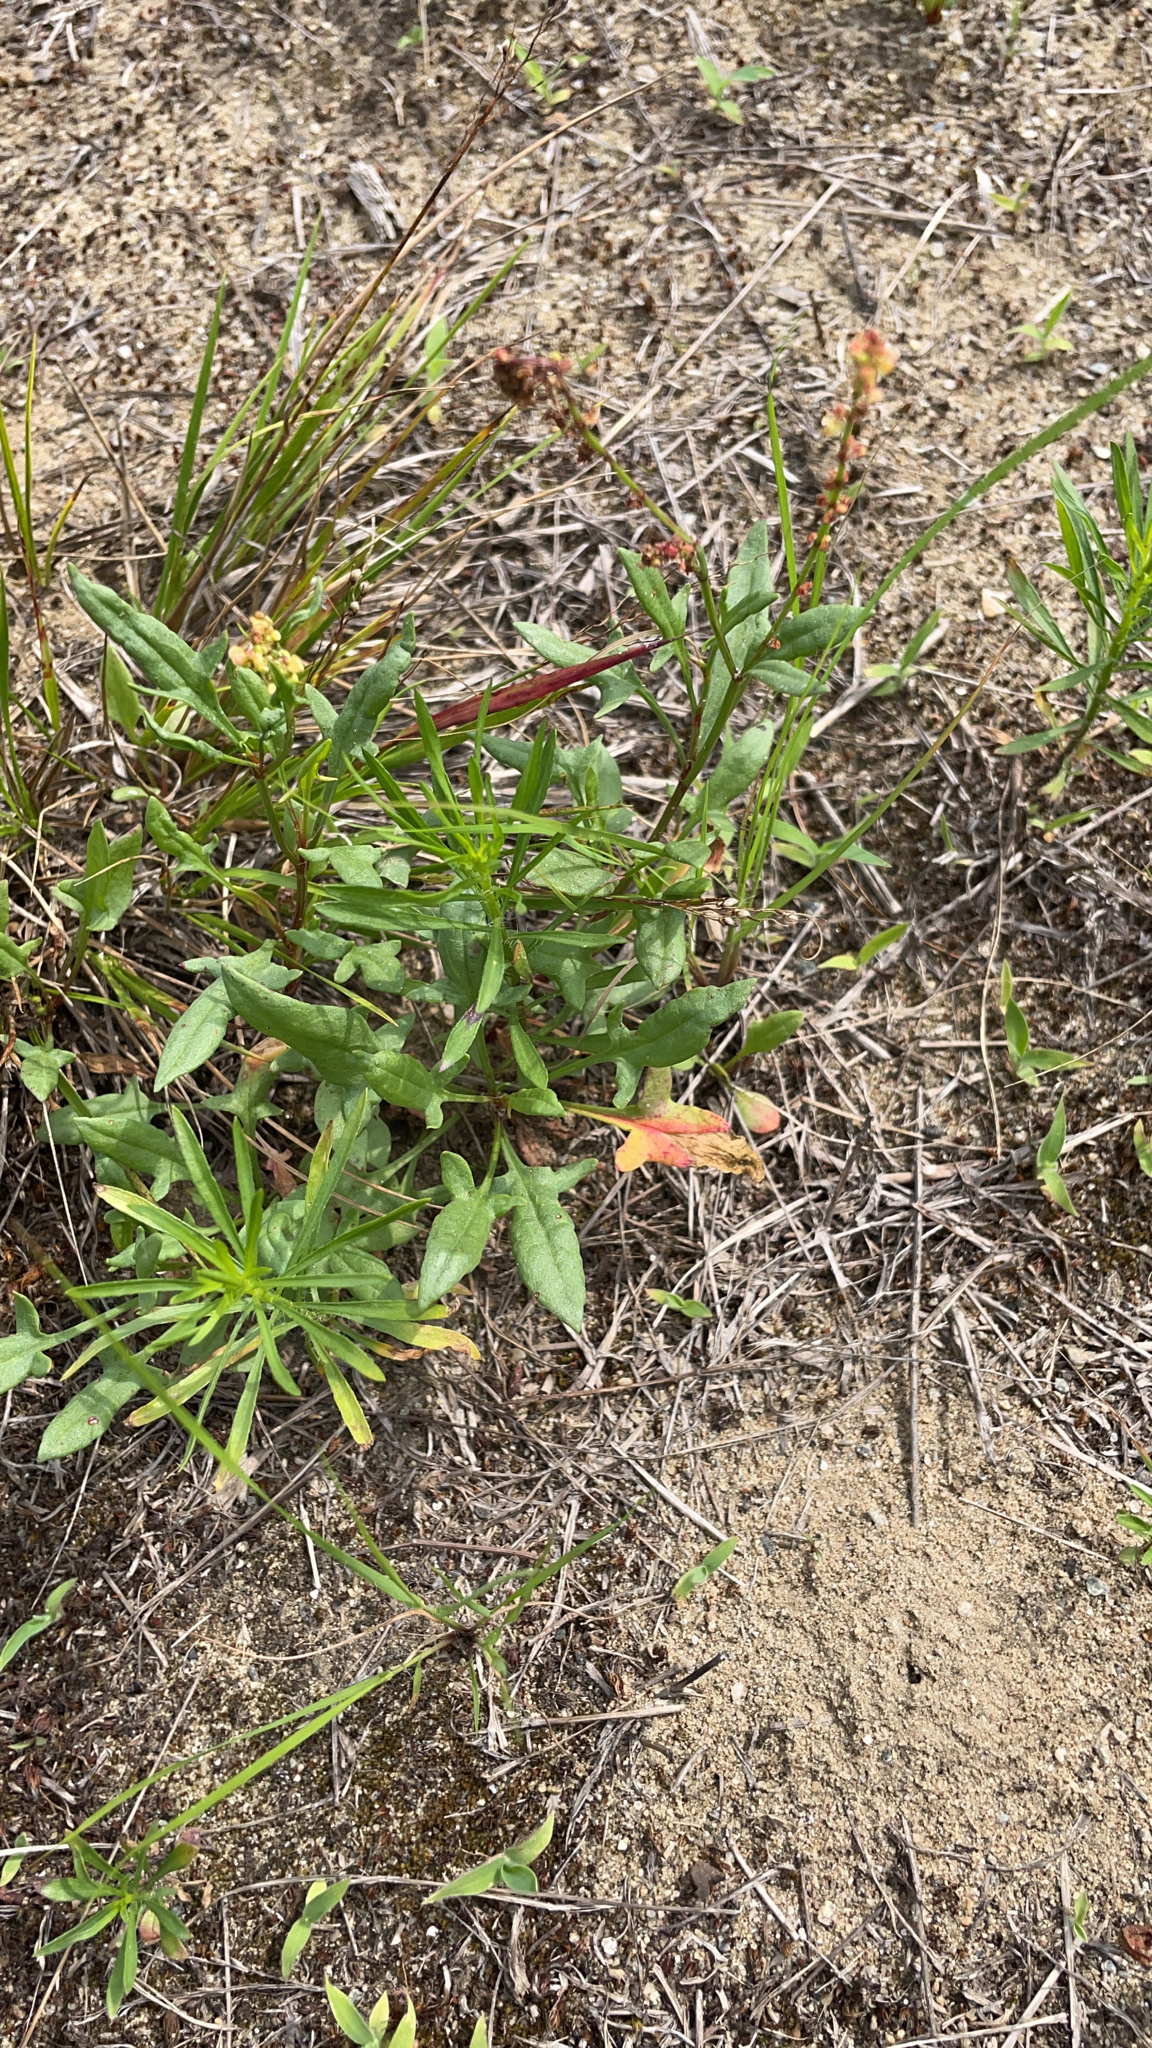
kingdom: Plantae
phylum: Tracheophyta
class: Magnoliopsida
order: Caryophyllales
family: Polygonaceae
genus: Rumex
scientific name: Rumex acetosella
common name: Common sheep sorrel
